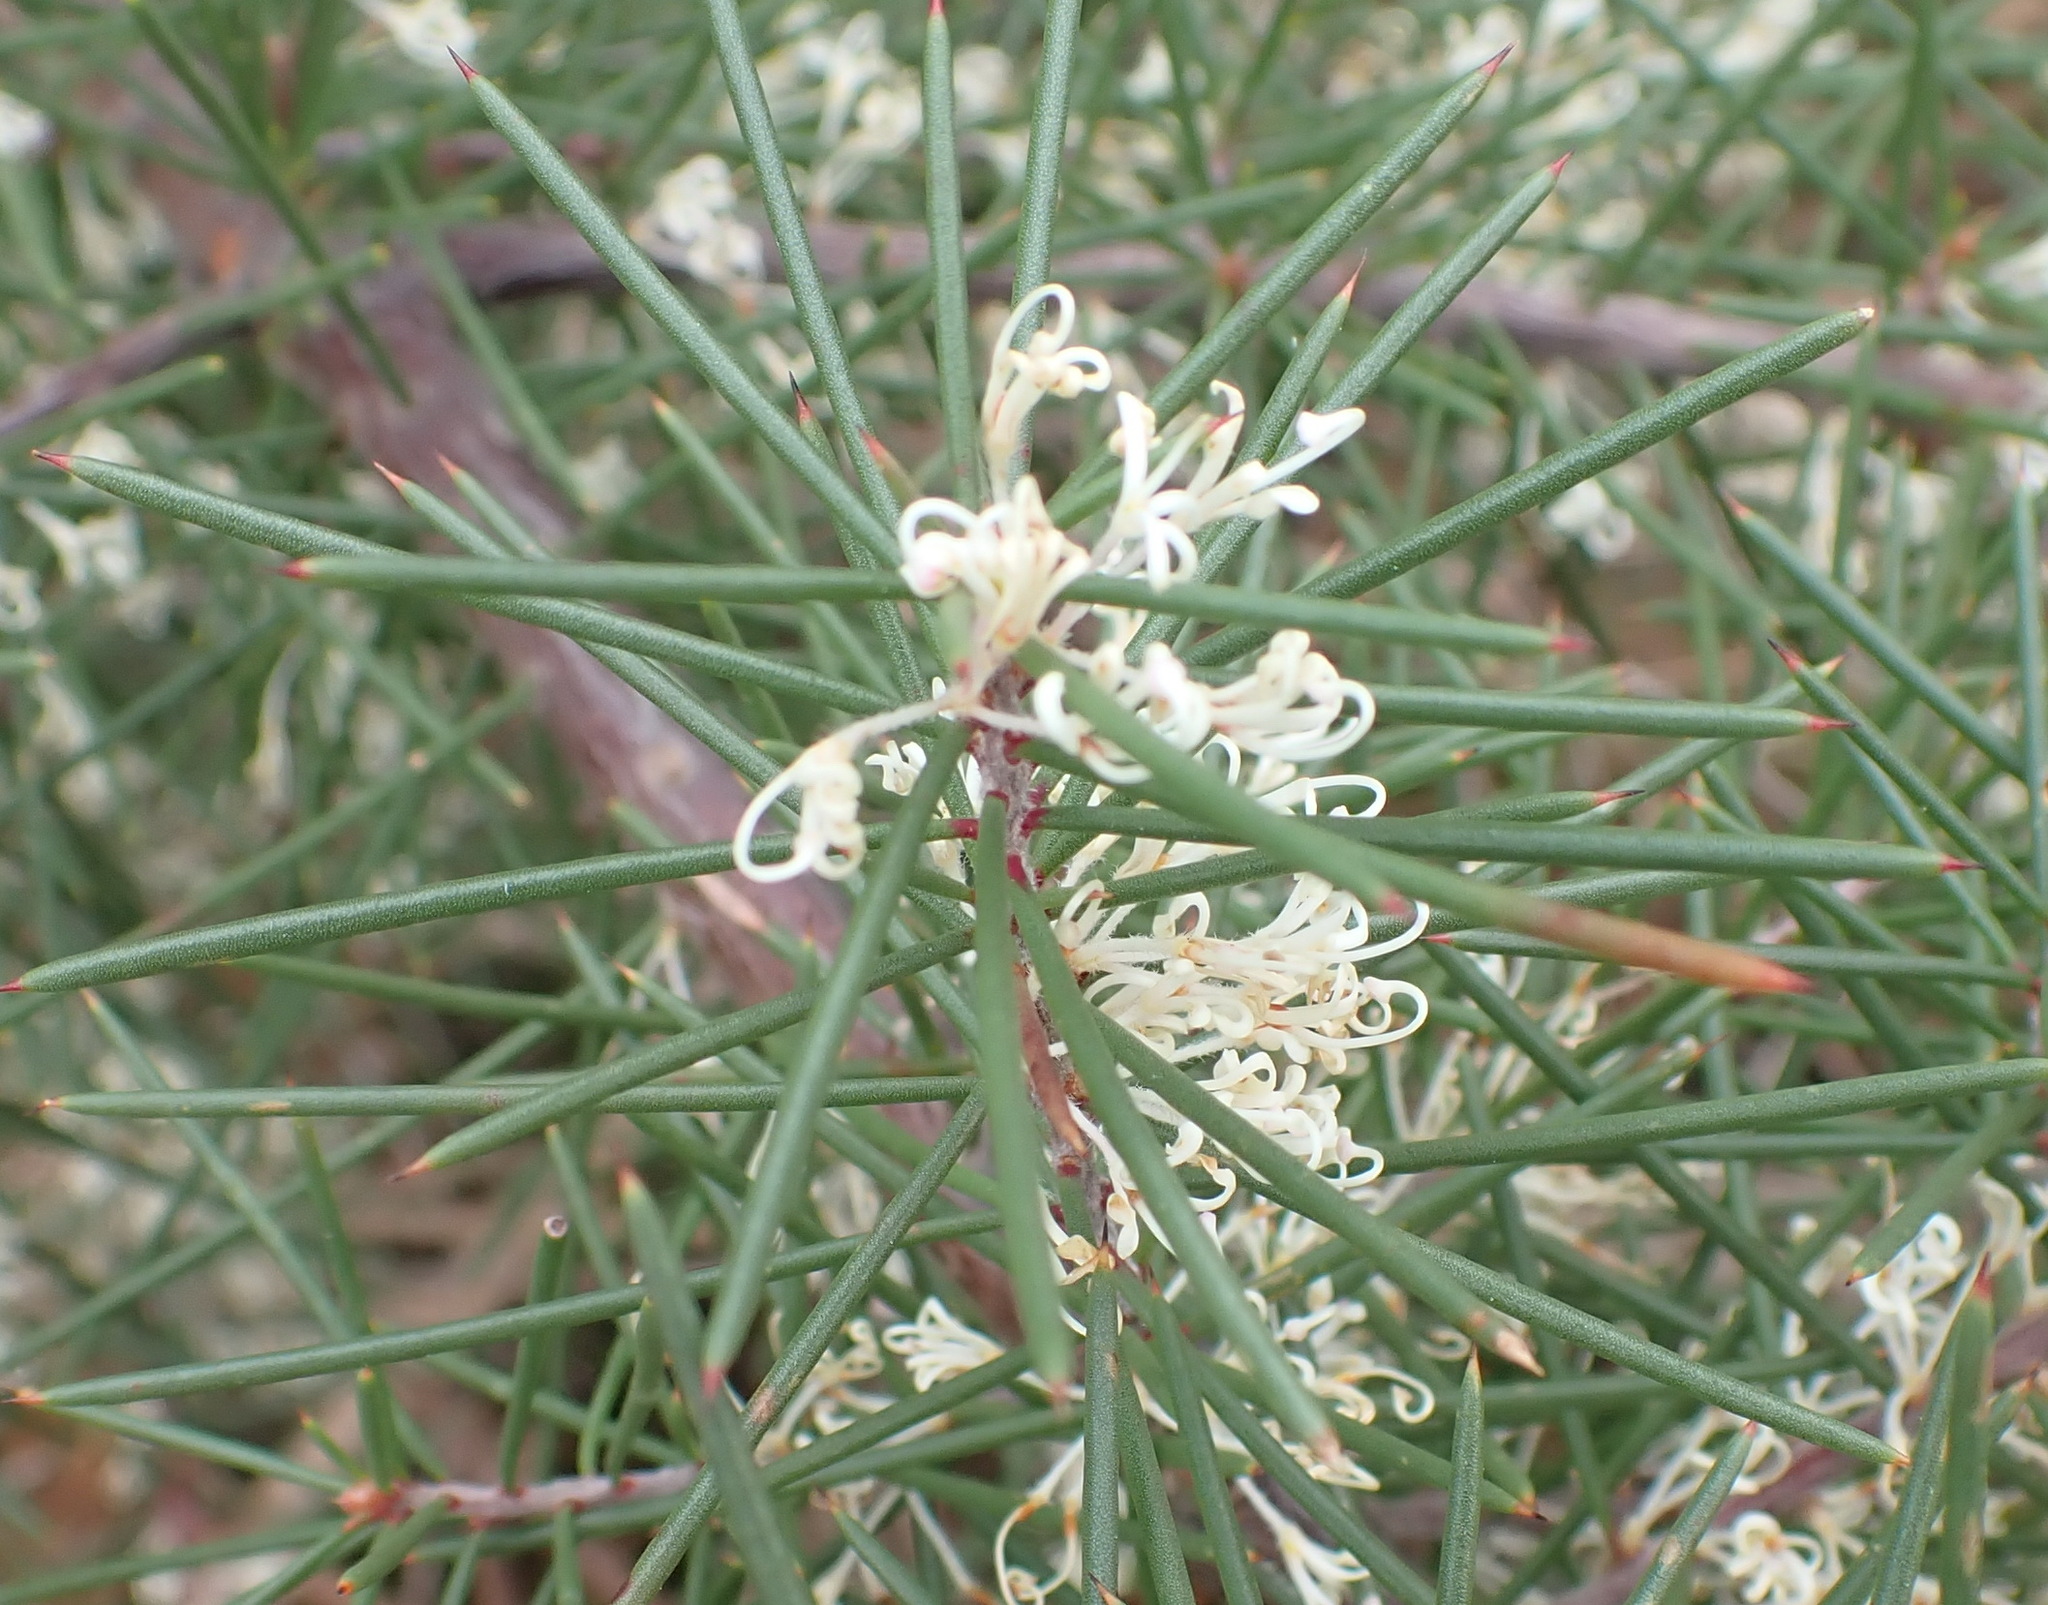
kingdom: Plantae
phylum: Tracheophyta
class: Magnoliopsida
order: Proteales
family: Proteaceae
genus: Hakea
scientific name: Hakea sericea
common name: Needle bush
